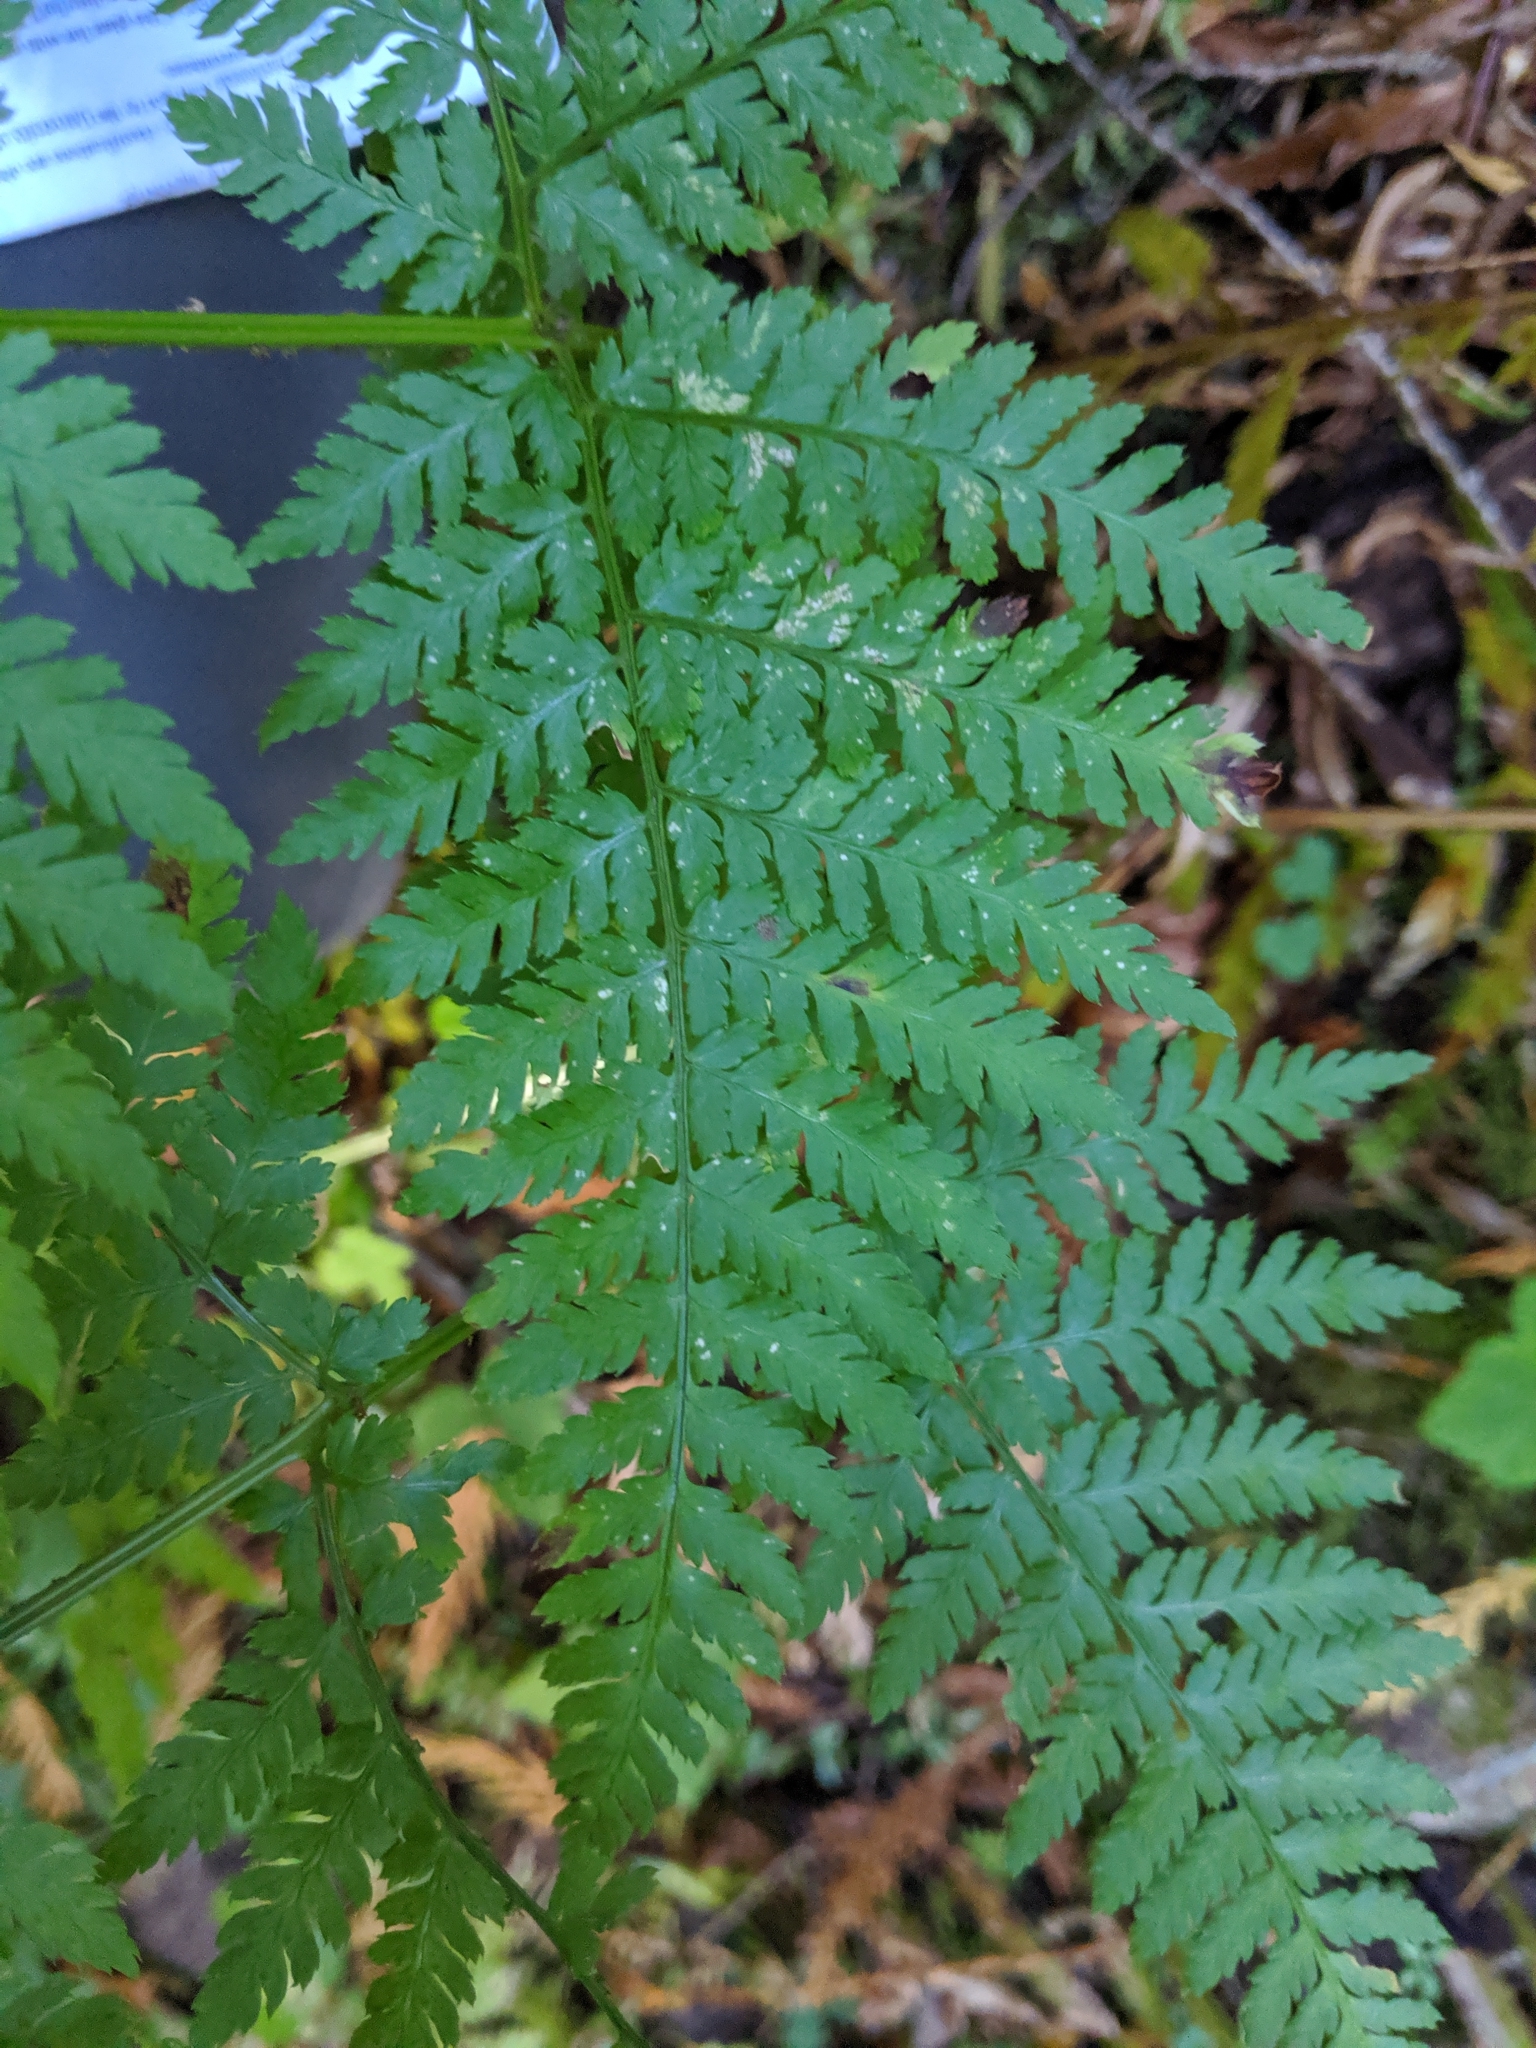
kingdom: Plantae
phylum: Tracheophyta
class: Polypodiopsida
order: Polypodiales
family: Dryopteridaceae
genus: Dryopteris
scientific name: Dryopteris expansa
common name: Northern buckler fern
